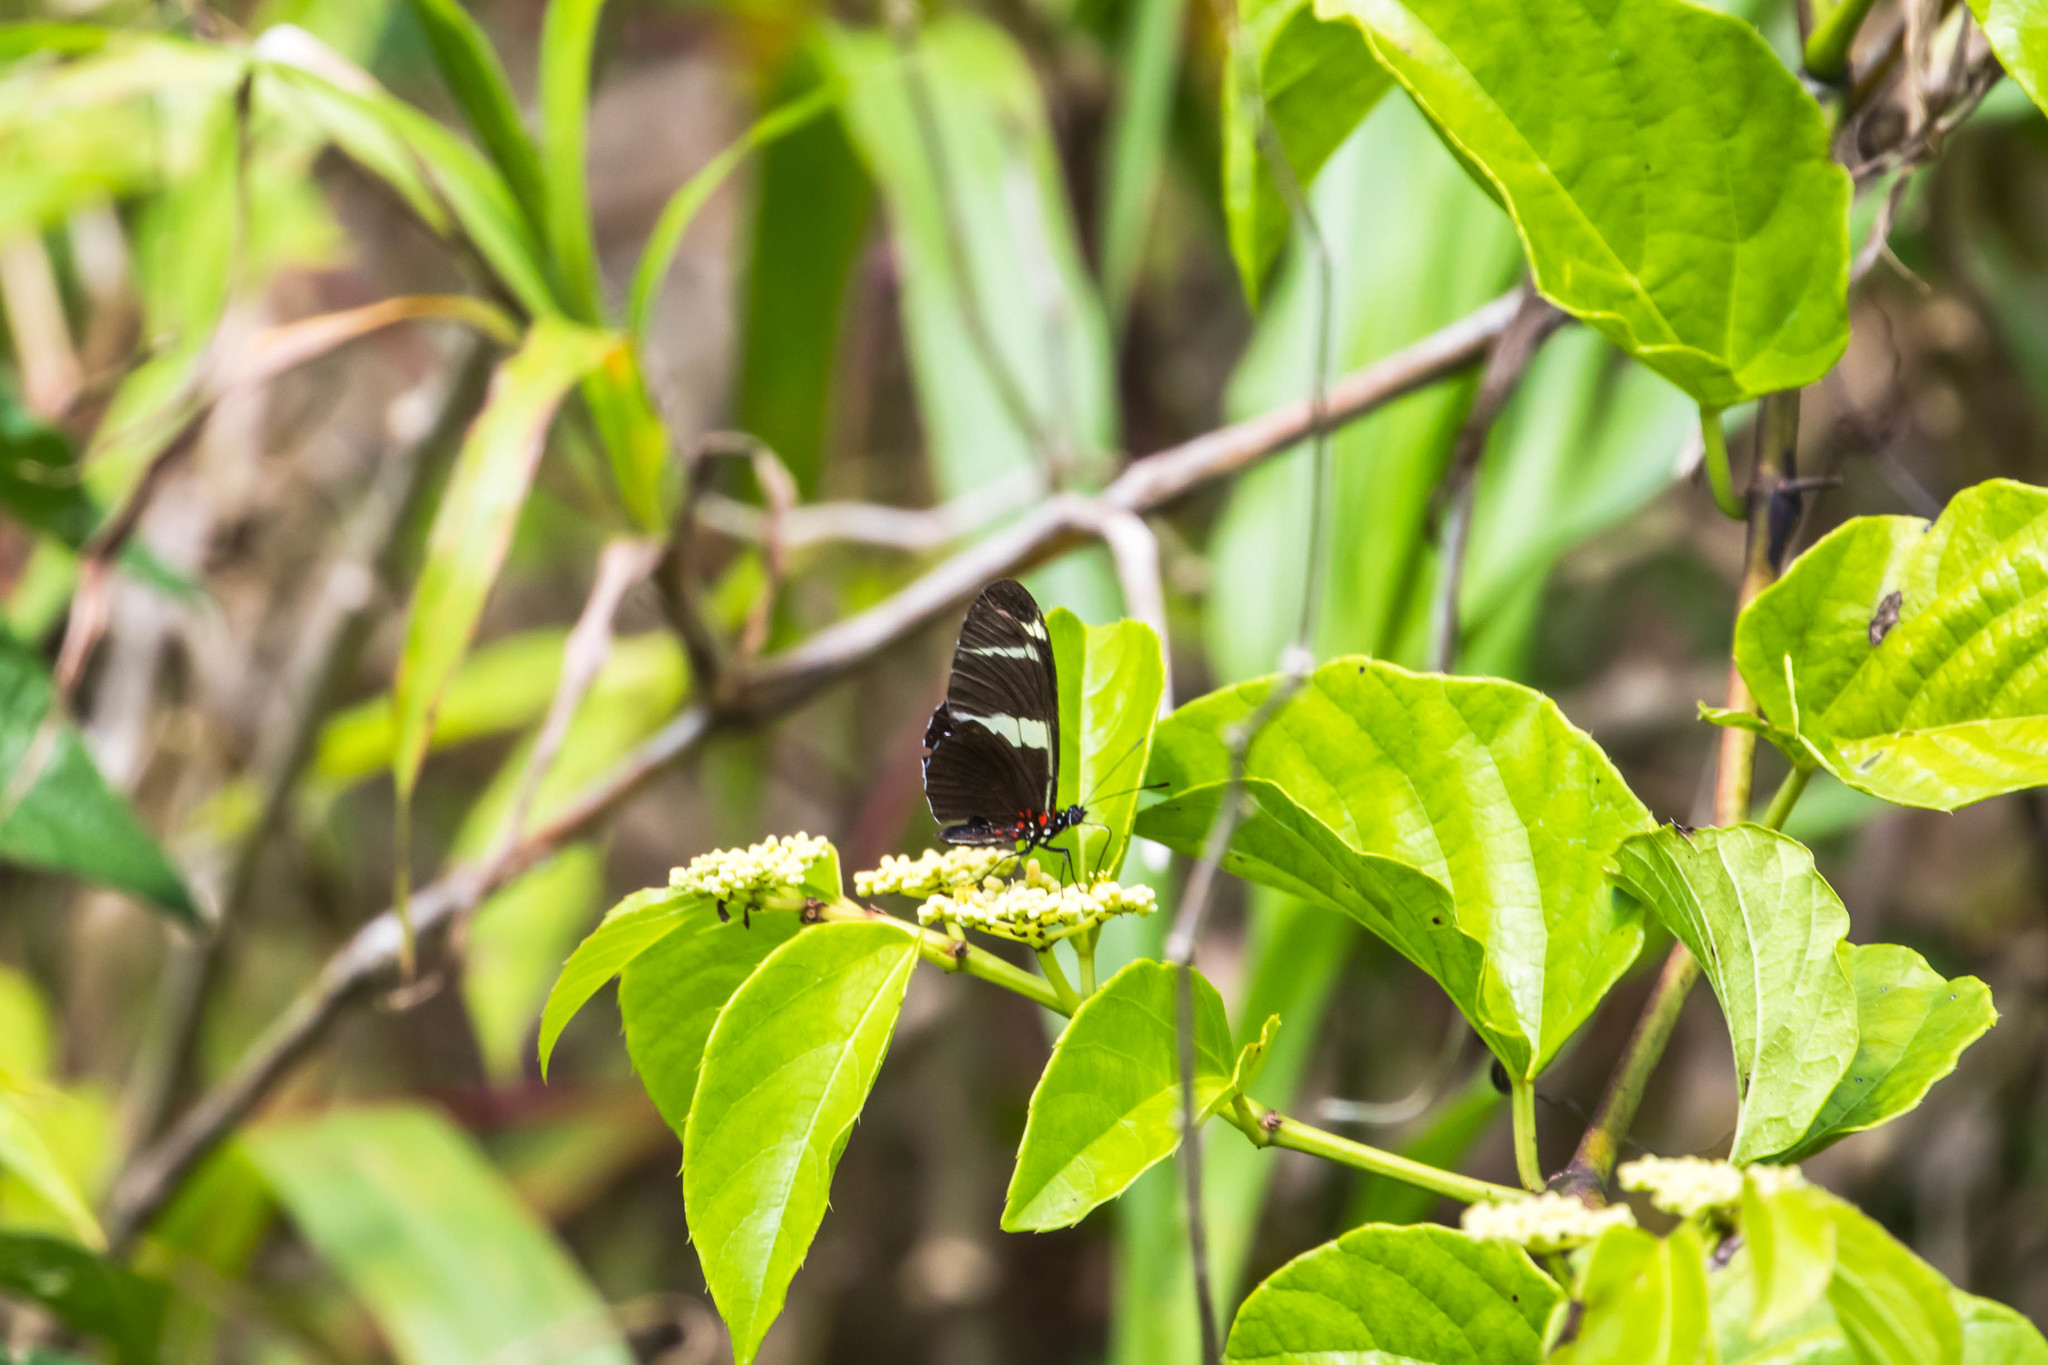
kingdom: Animalia
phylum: Arthropoda
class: Insecta
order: Lepidoptera
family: Nymphalidae
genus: Heliconius
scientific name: Heliconius sara
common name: Sara longwing
